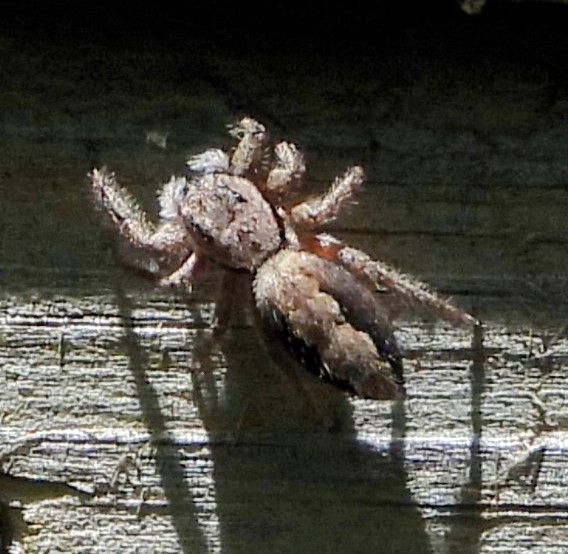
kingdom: Animalia
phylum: Arthropoda
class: Arachnida
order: Araneae
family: Salticidae
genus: Platycryptus
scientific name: Platycryptus undatus
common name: Tan jumping spider
